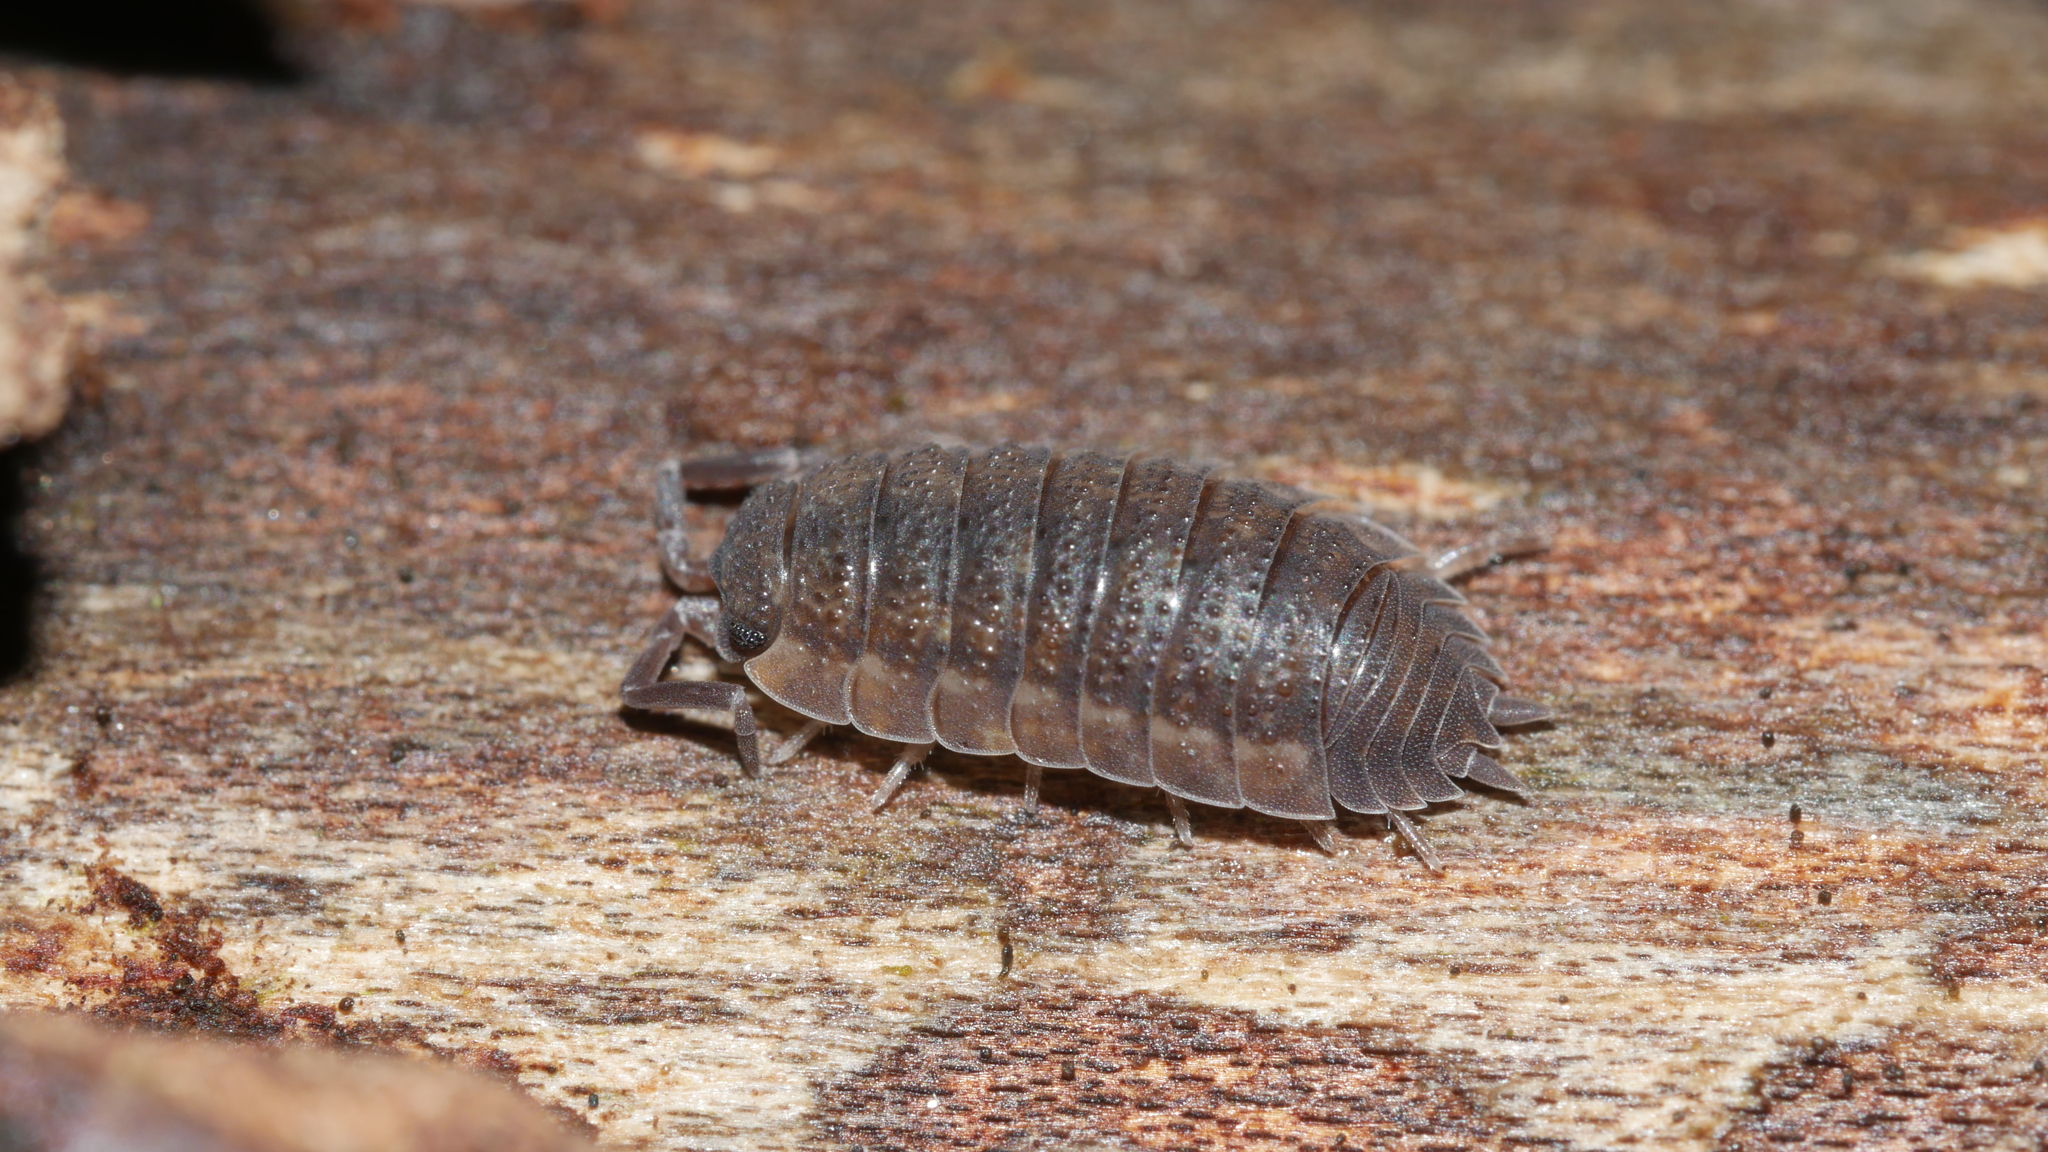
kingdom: Animalia
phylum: Arthropoda
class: Malacostraca
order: Isopoda
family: Porcellionidae
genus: Porcellio
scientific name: Porcellio scaber
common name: Common rough woodlouse
